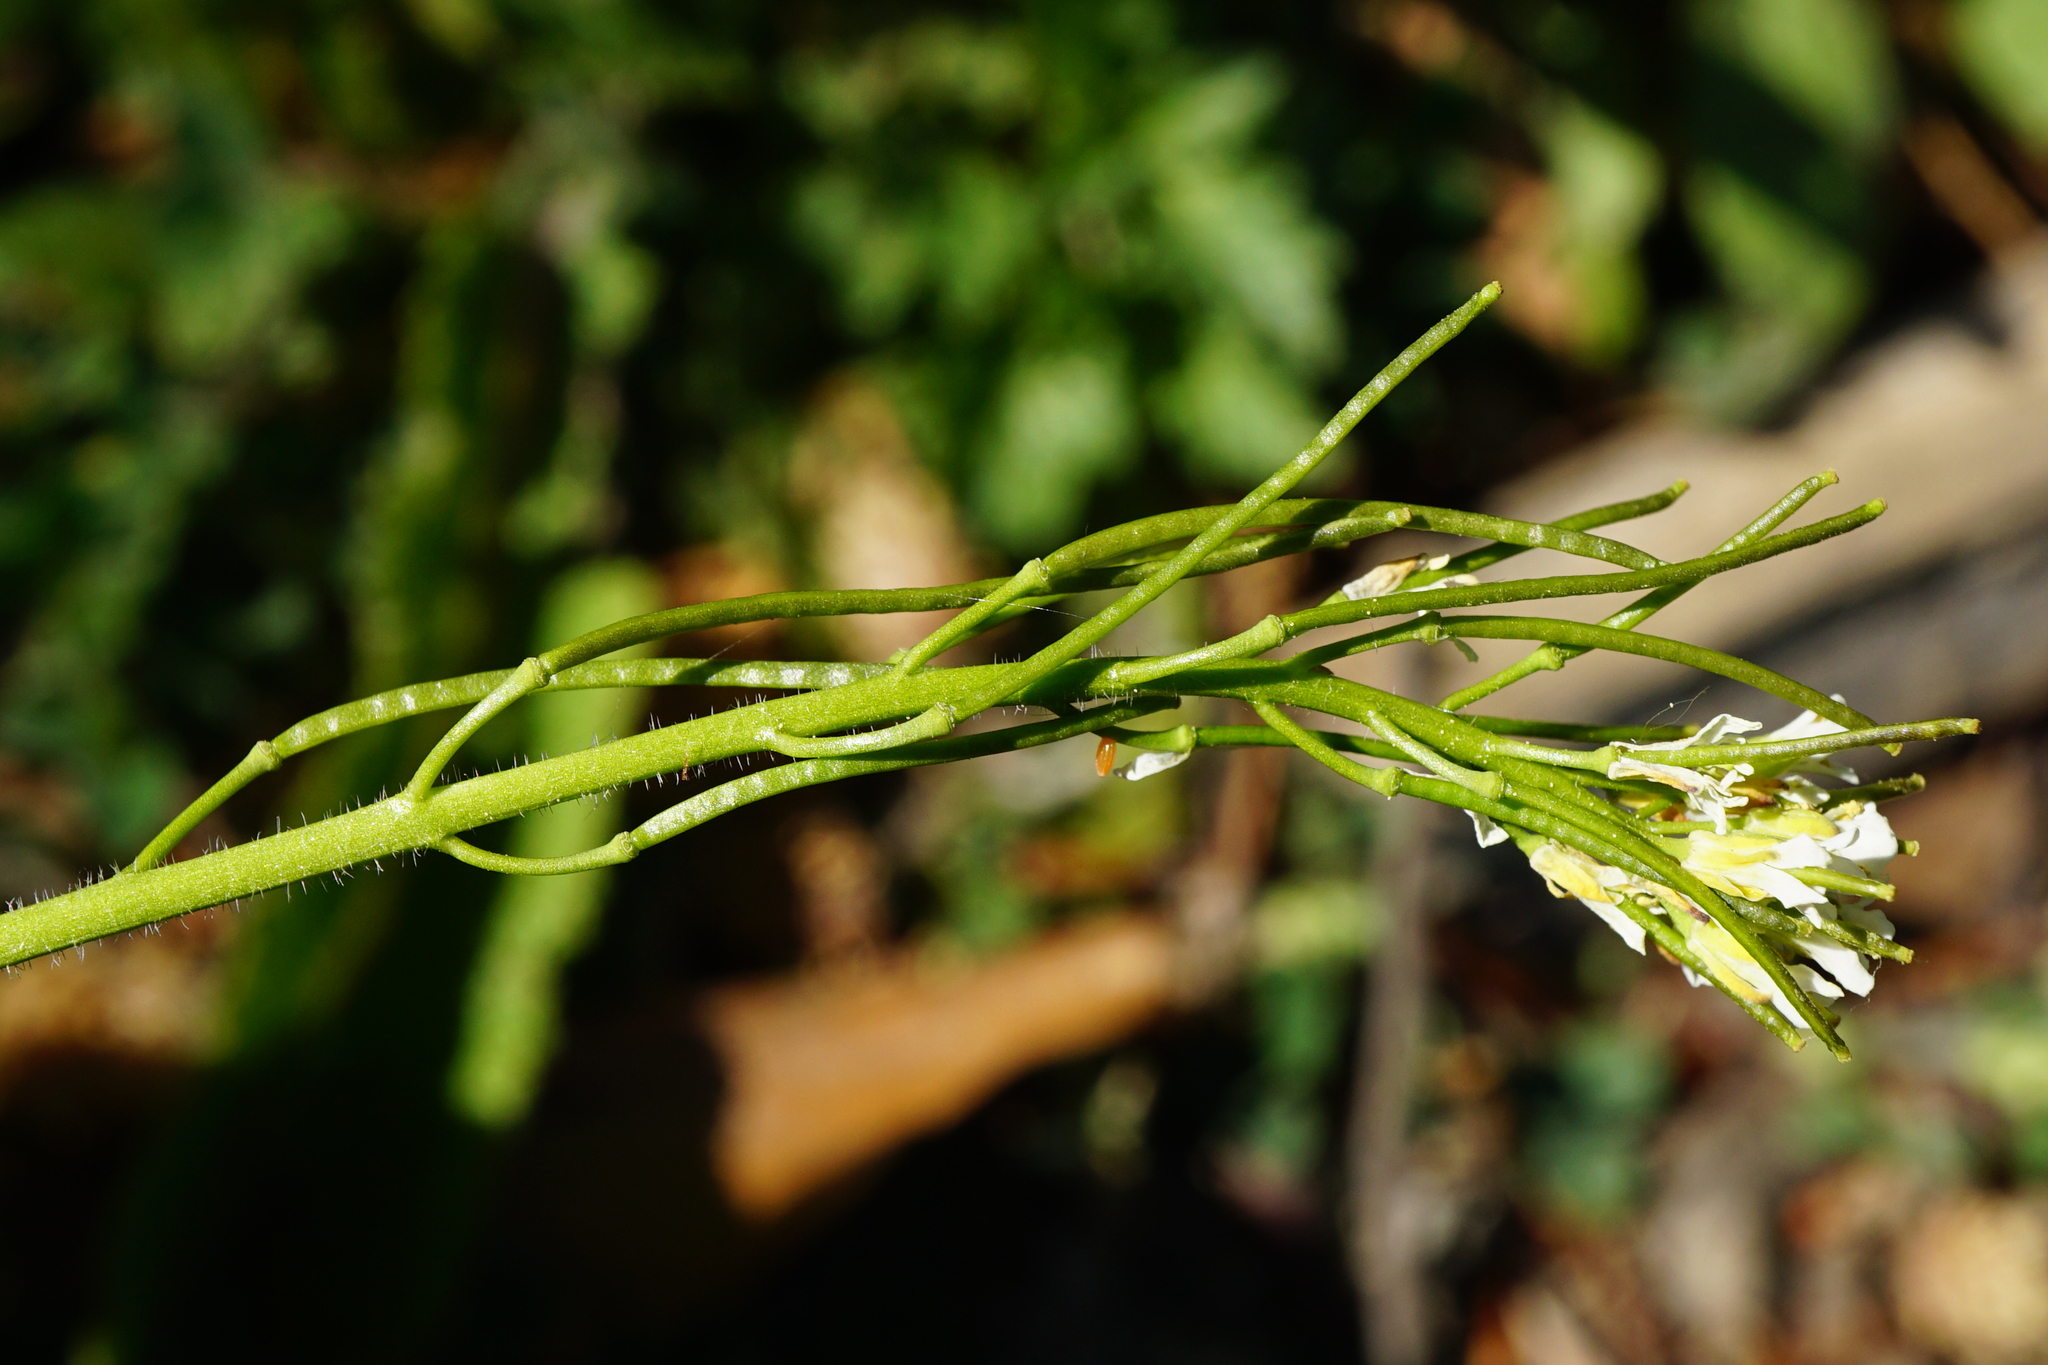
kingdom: Plantae
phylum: Tracheophyta
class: Magnoliopsida
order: Brassicales
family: Brassicaceae
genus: Arabis
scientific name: Arabis hirsuta
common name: Hairy rock-cress
